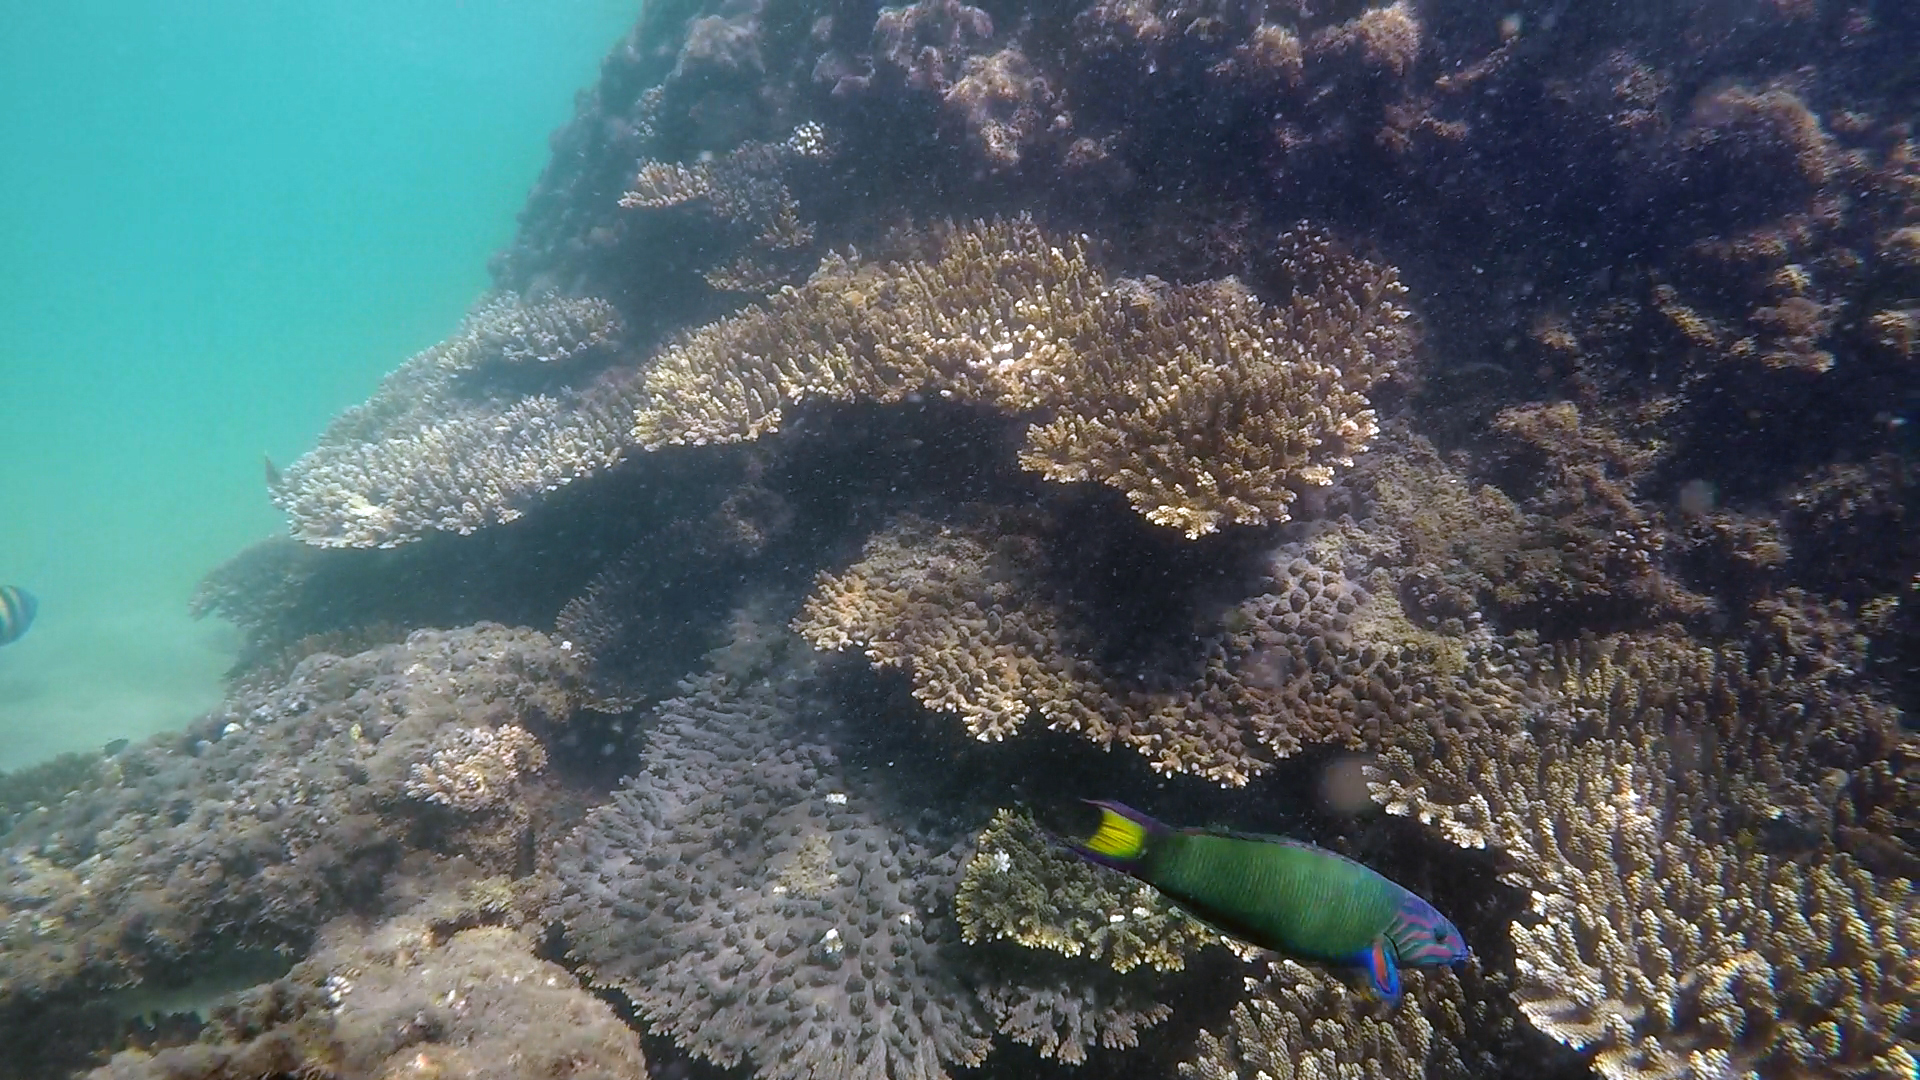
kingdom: Animalia
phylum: Chordata
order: Perciformes
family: Labridae
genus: Thalassoma
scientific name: Thalassoma lunare
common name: Blue wrasse
